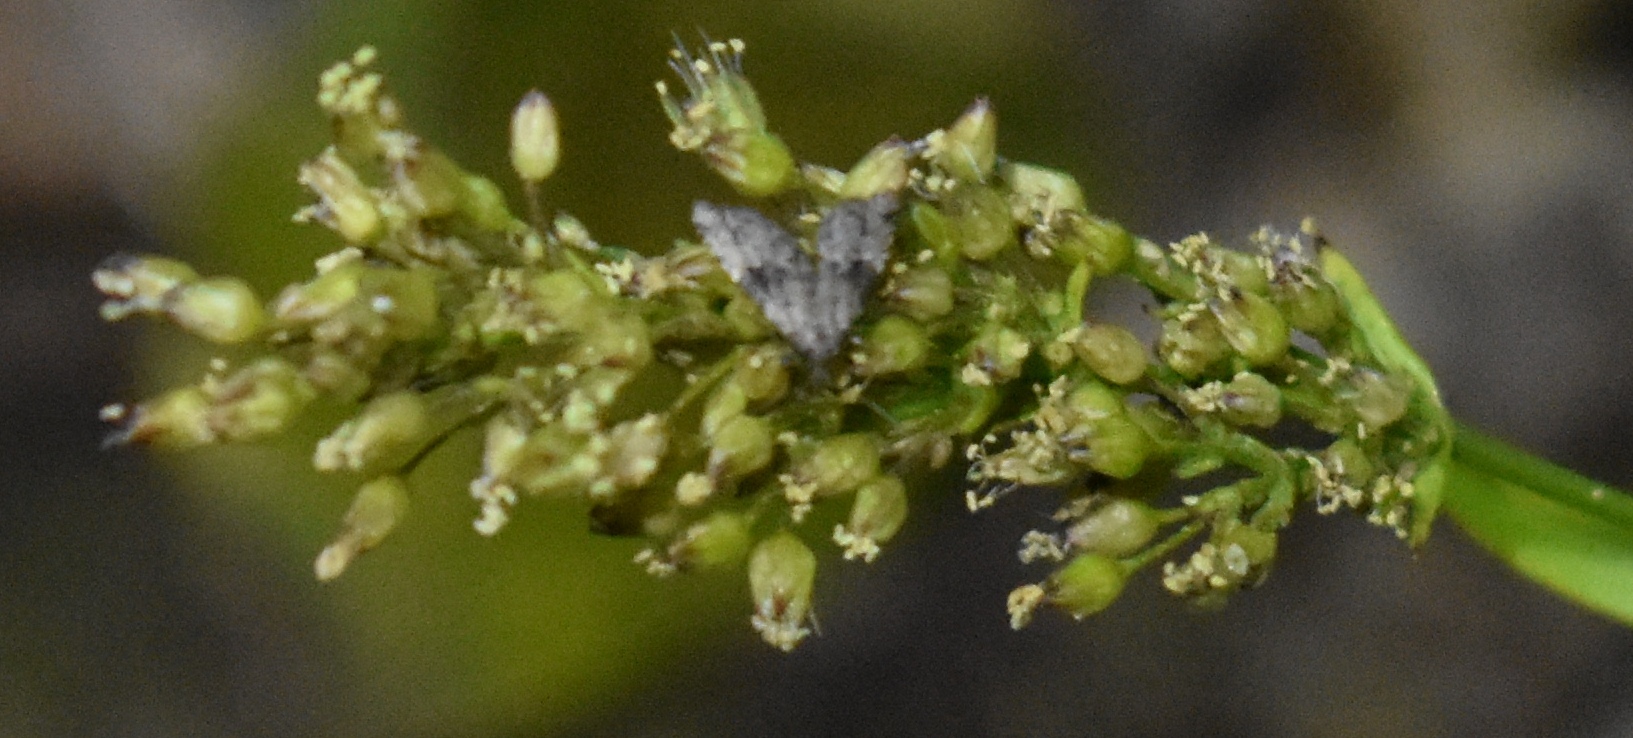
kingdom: Animalia
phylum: Arthropoda
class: Insecta
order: Lepidoptera
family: Erebidae
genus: Pseudoschrankia
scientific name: Pseudoschrankia brevipalpis
